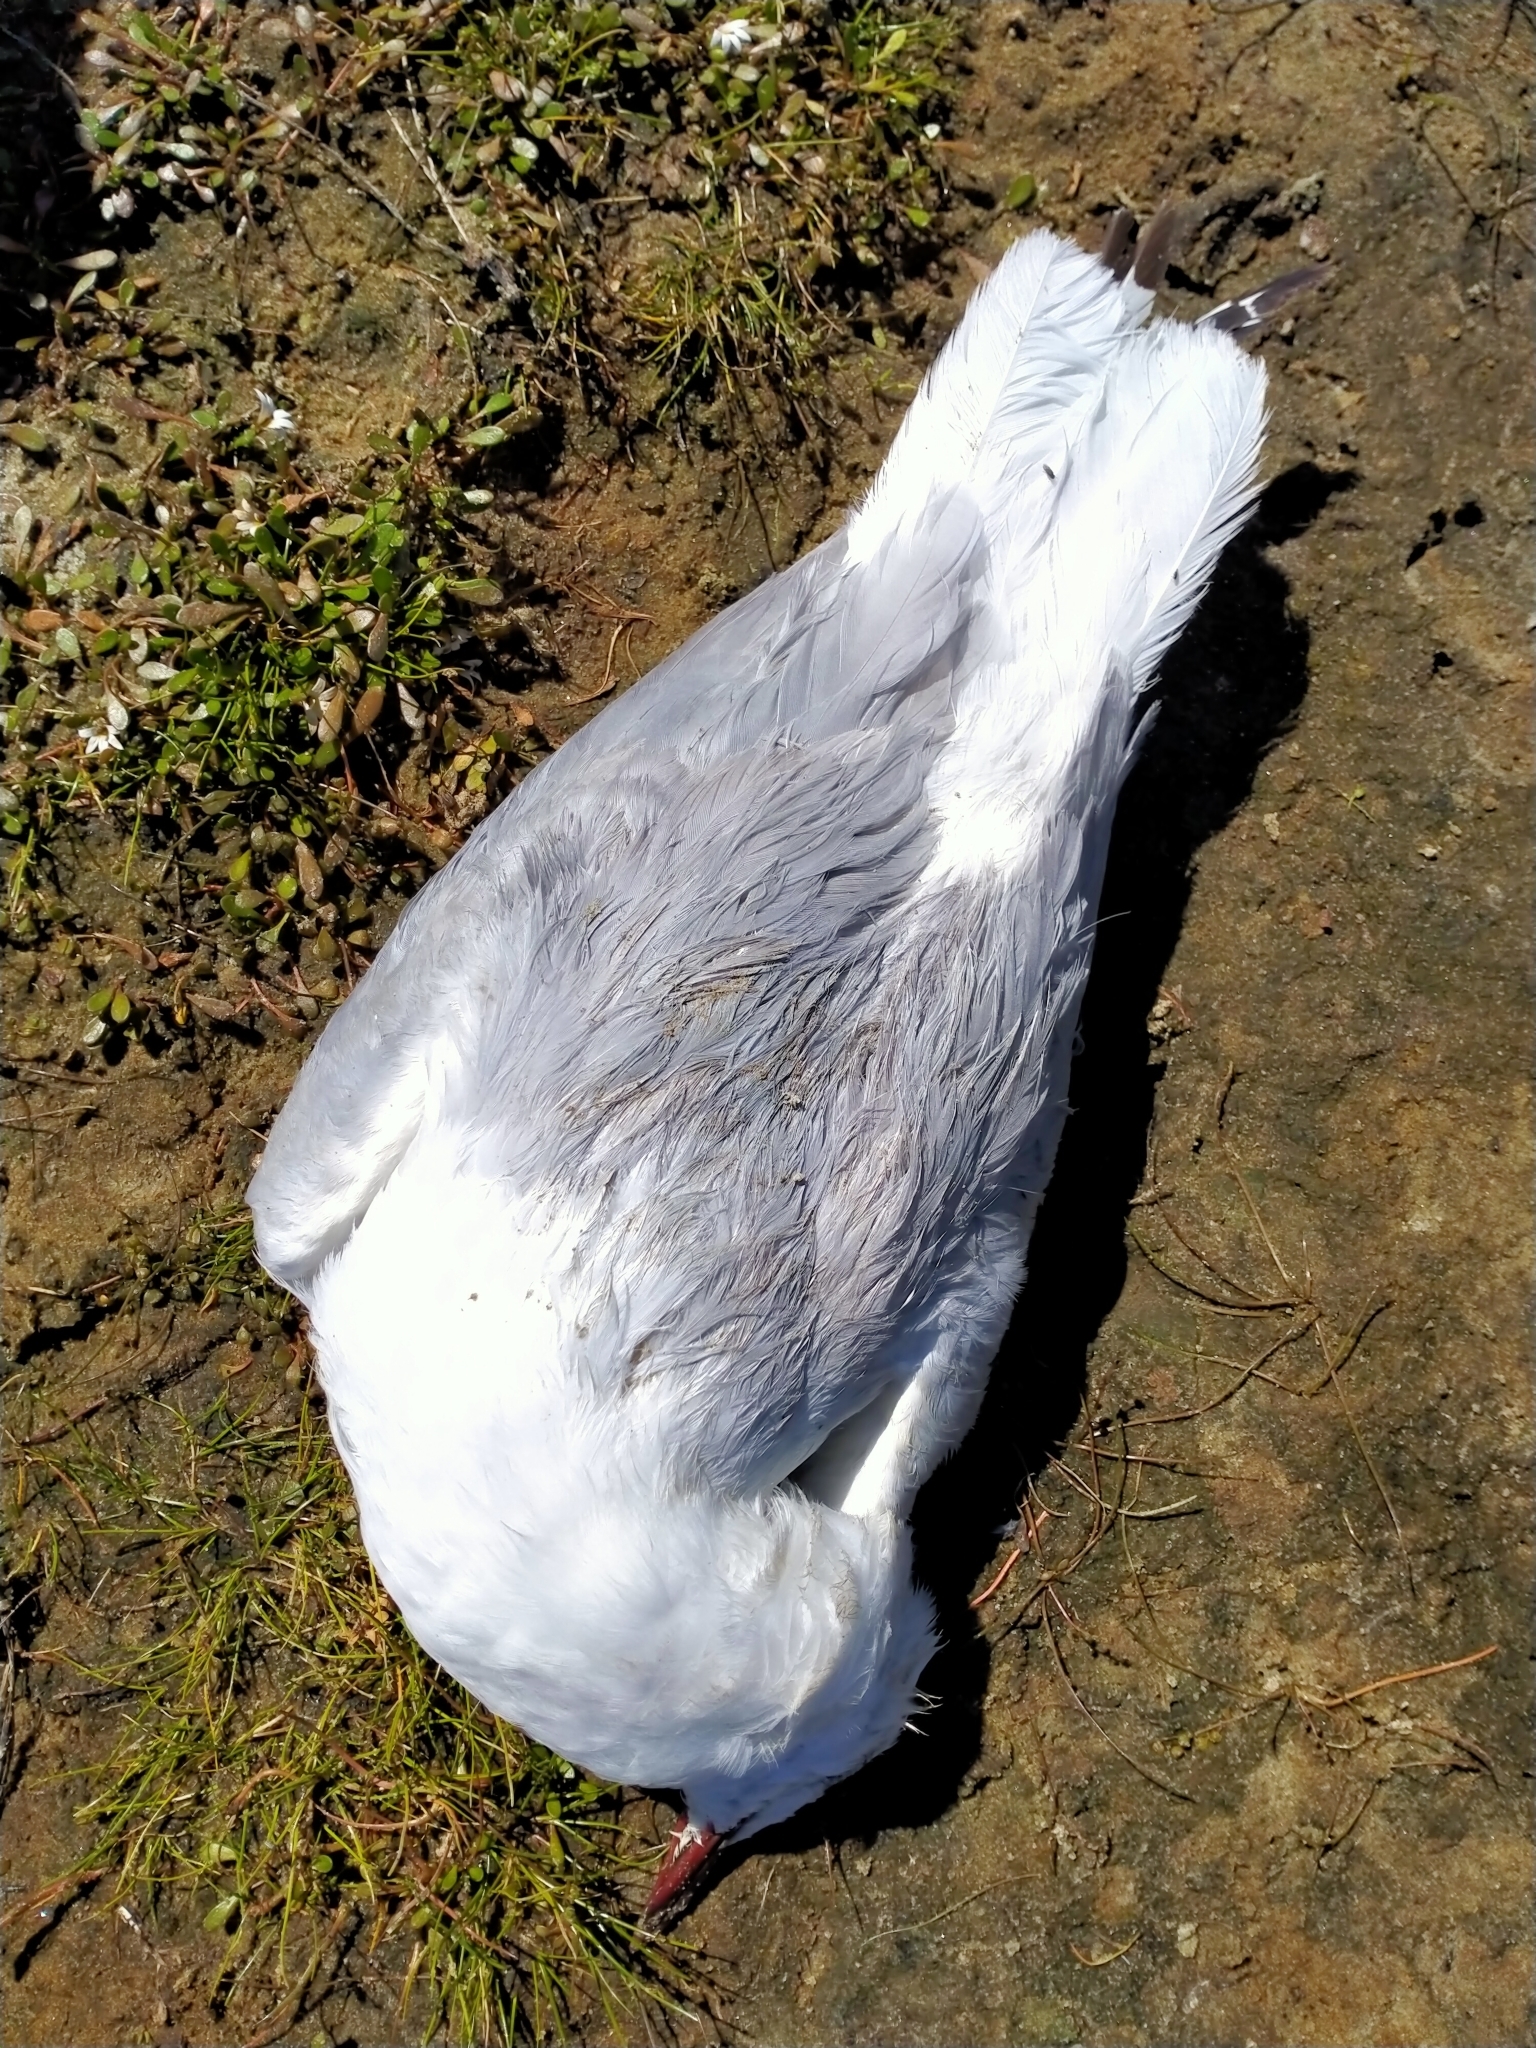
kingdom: Animalia
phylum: Chordata
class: Aves
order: Charadriiformes
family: Laridae
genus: Chroicocephalus
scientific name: Chroicocephalus novaehollandiae
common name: Silver gull
